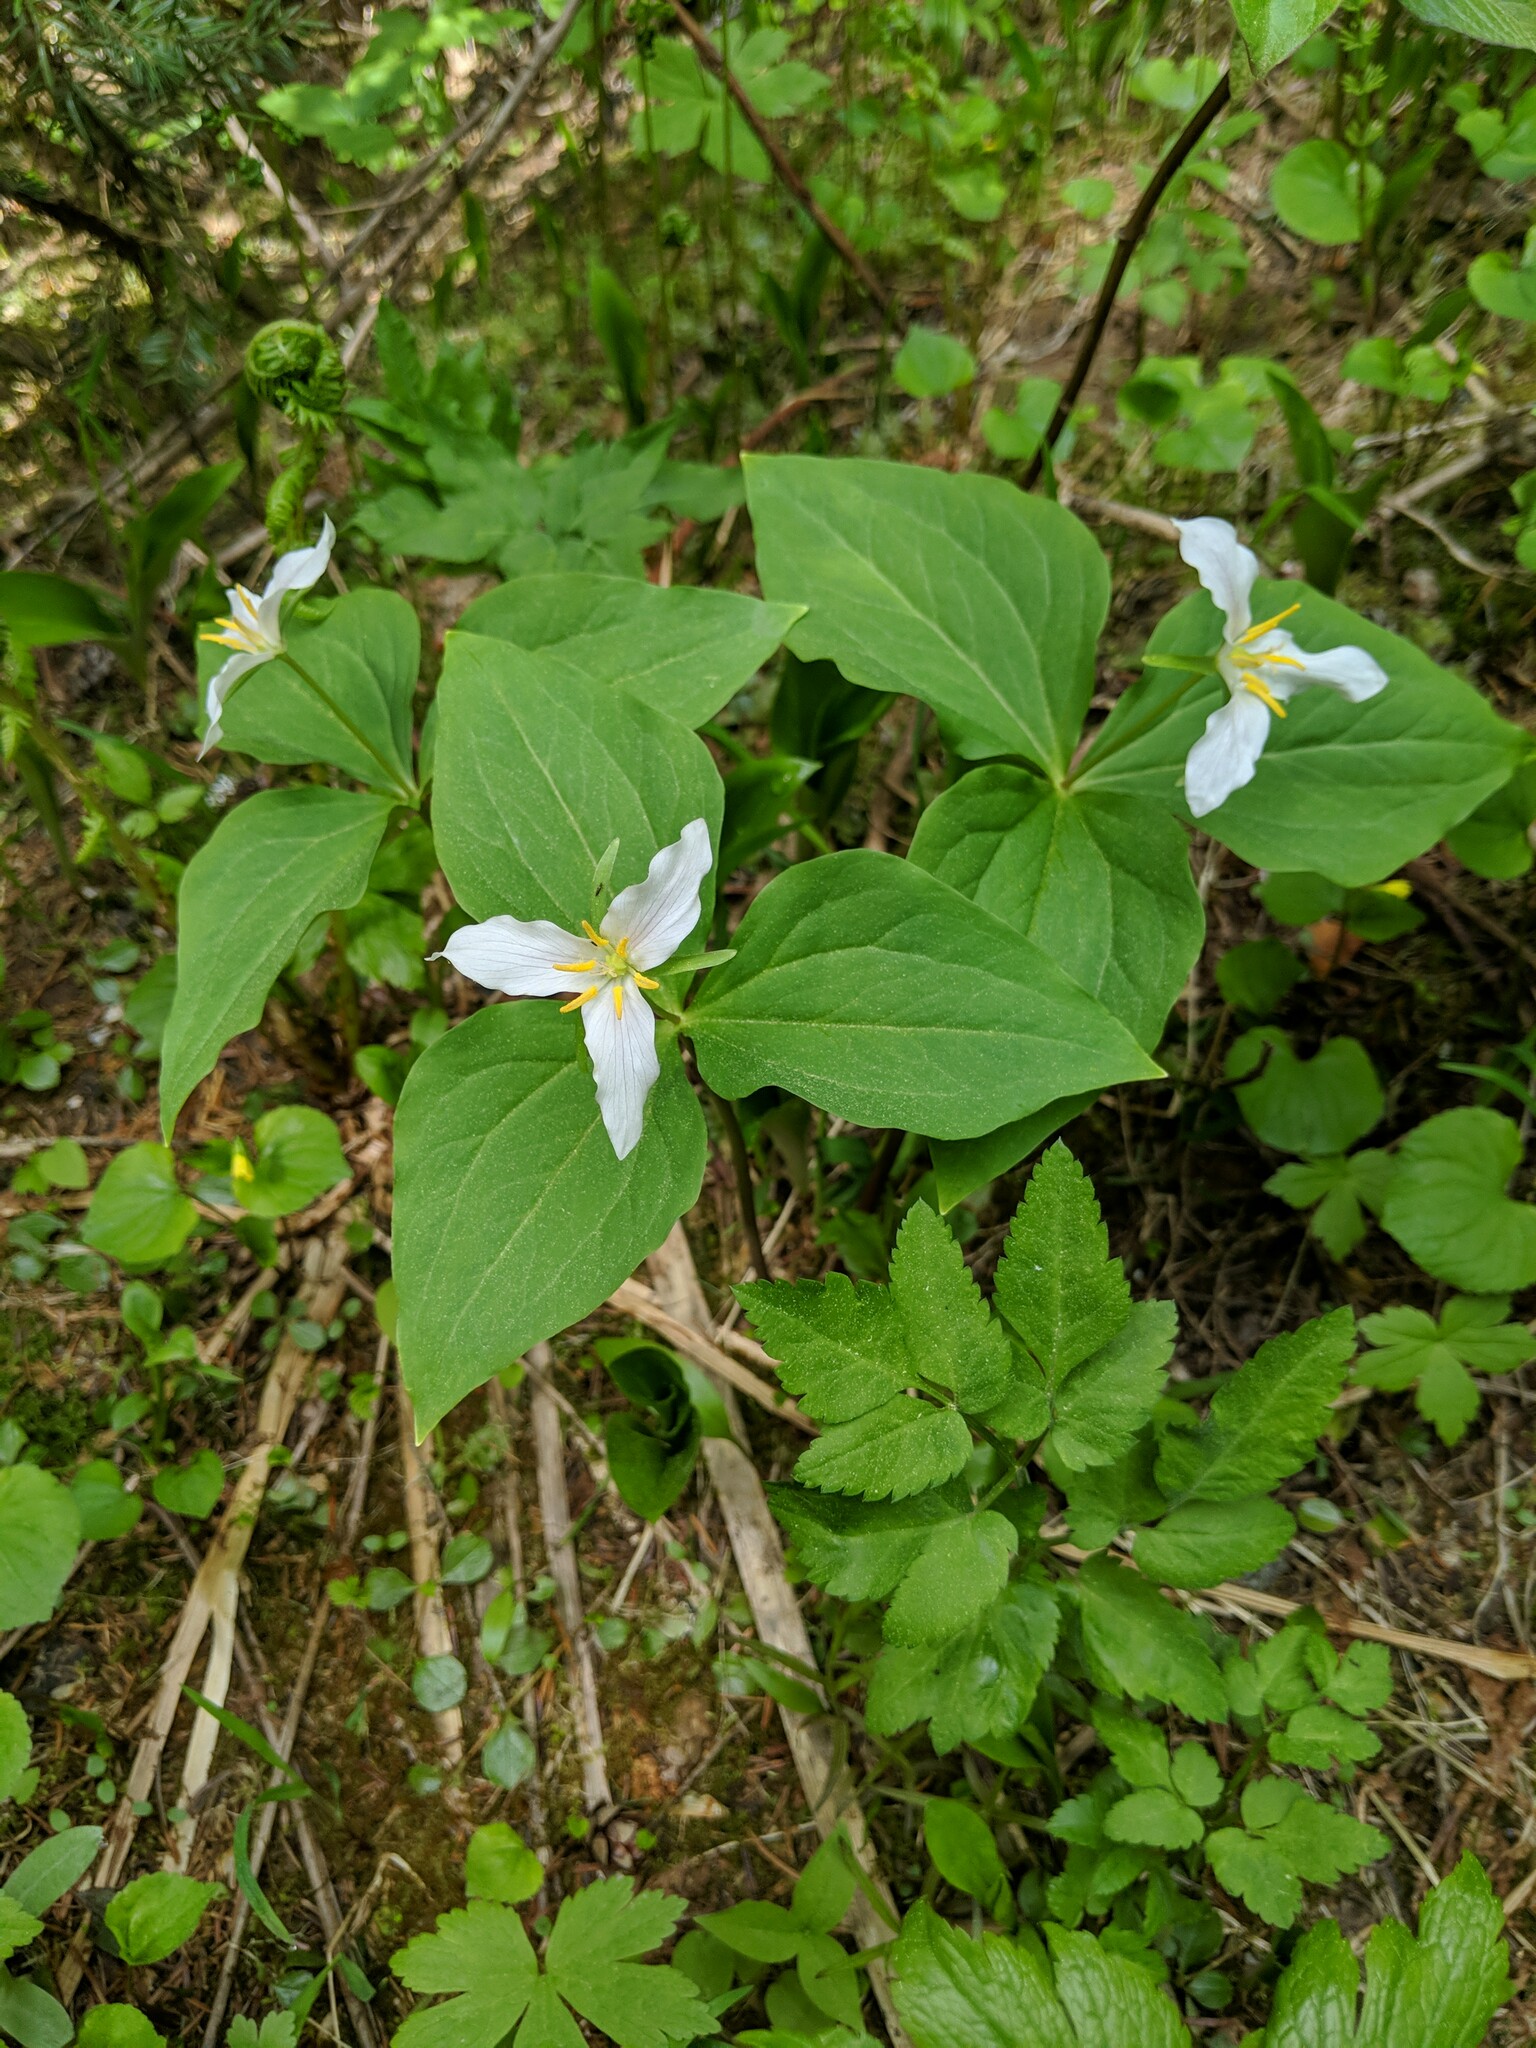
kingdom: Plantae
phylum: Tracheophyta
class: Liliopsida
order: Liliales
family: Melanthiaceae
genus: Trillium
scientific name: Trillium scouleri
